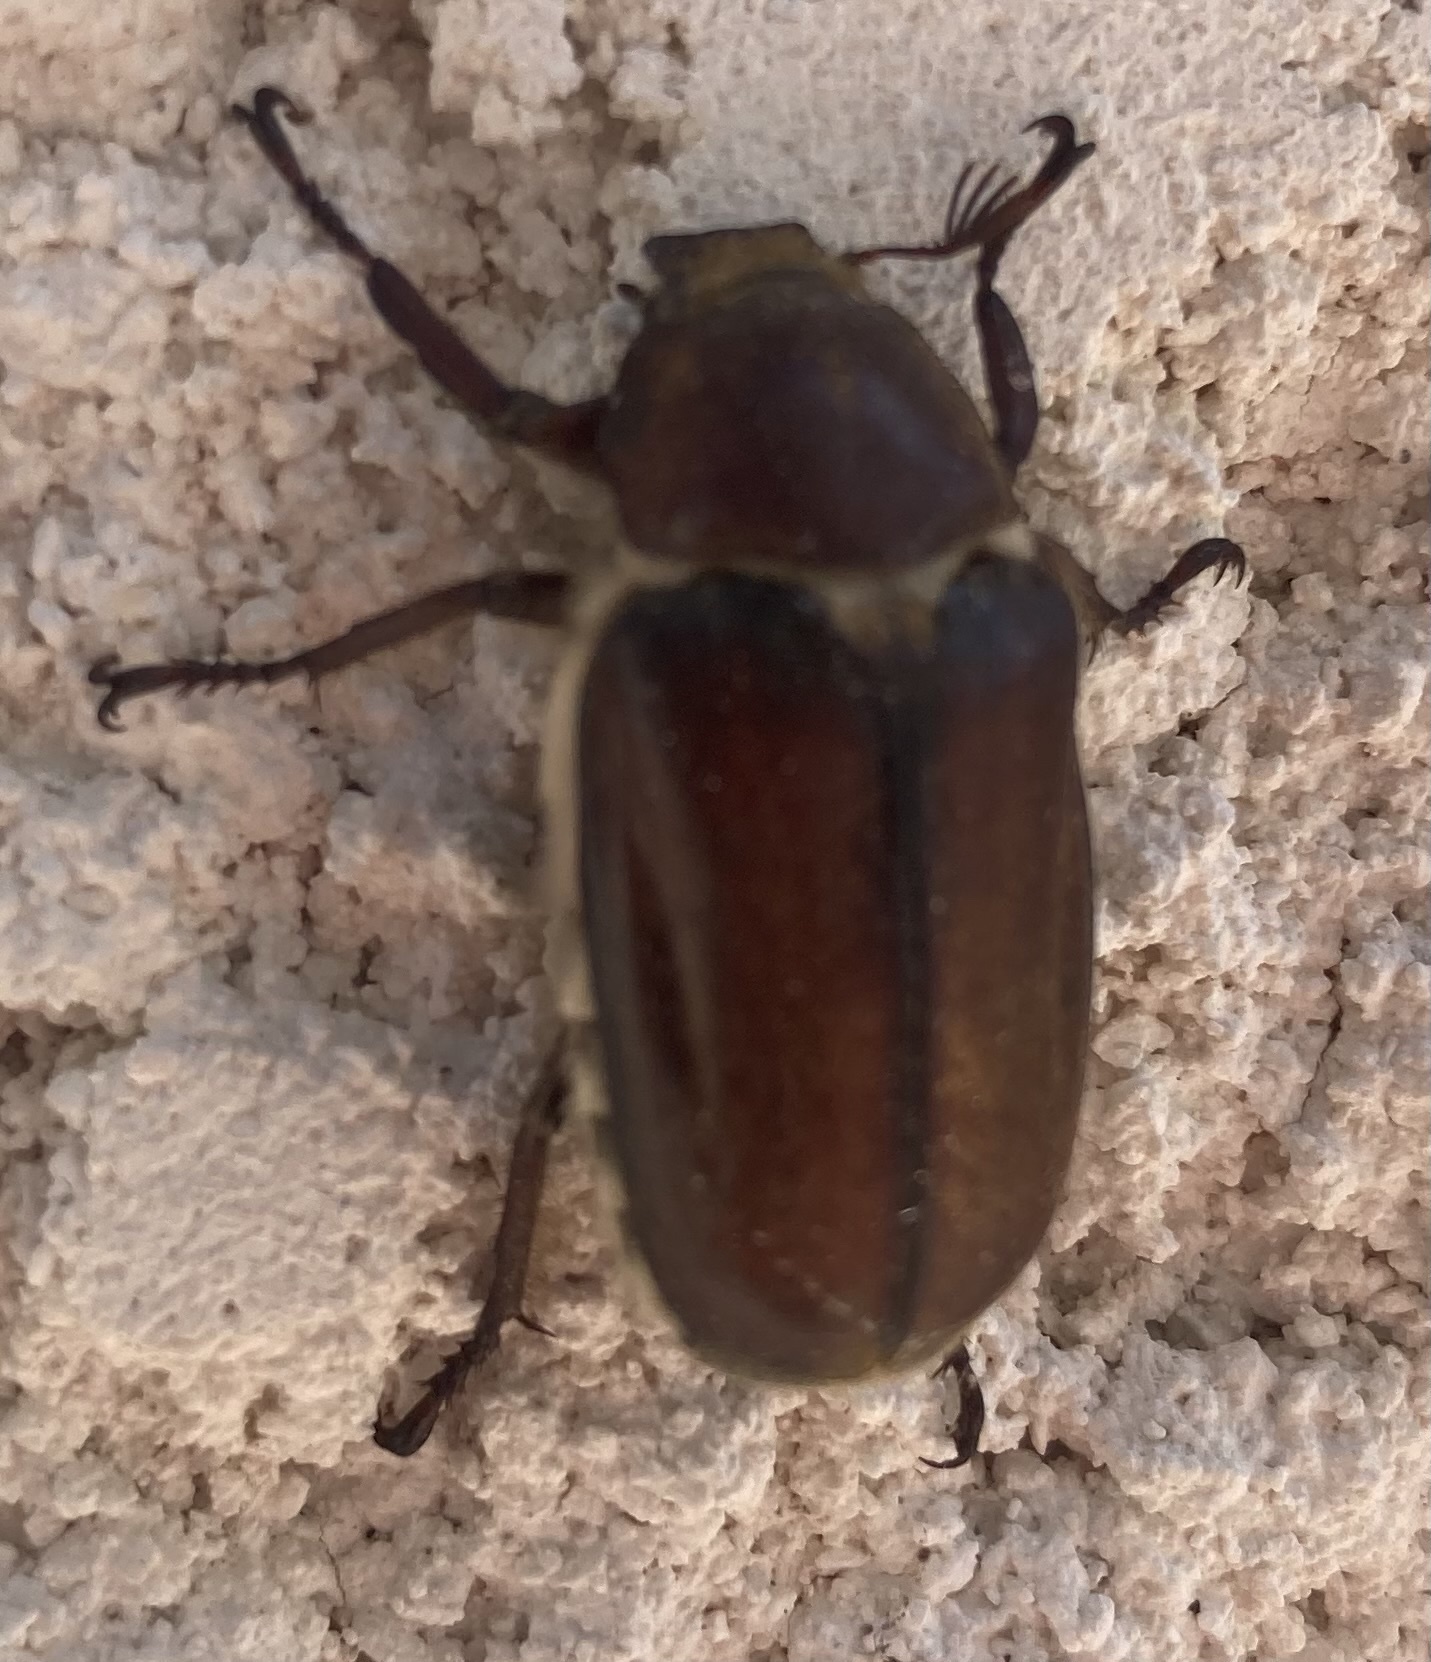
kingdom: Animalia
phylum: Arthropoda
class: Insecta
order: Coleoptera
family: Scarabaeidae
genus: Anoxia
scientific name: Anoxia villosa
